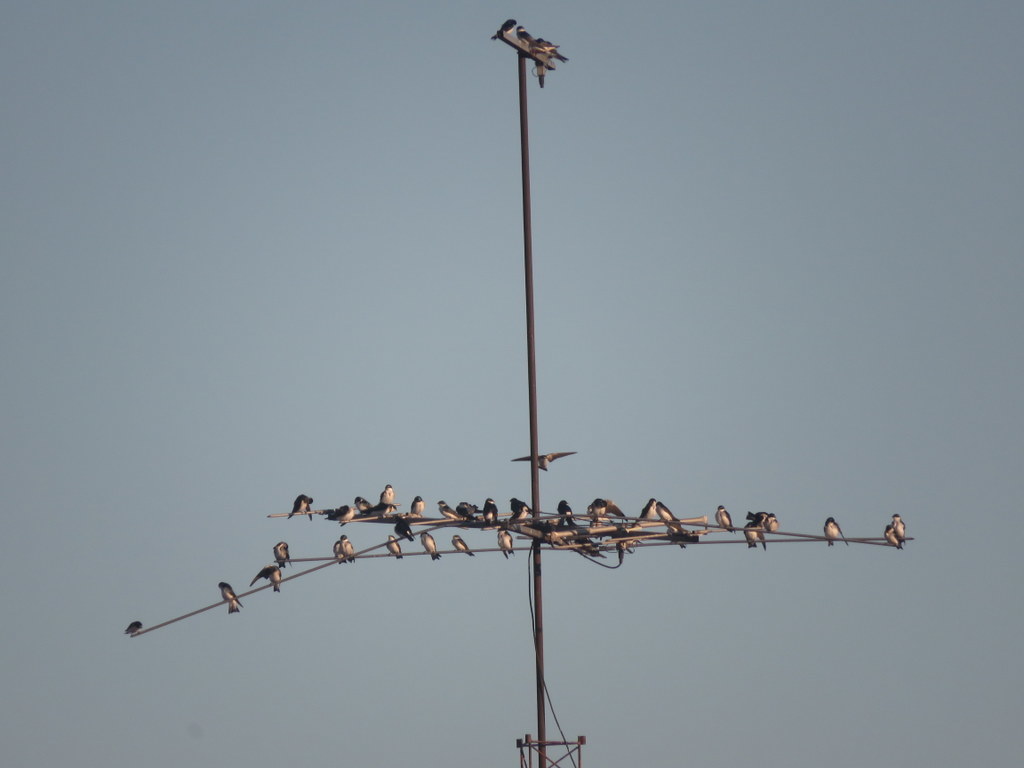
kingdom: Animalia
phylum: Chordata
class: Aves
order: Passeriformes
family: Hirundinidae
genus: Tachycineta
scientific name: Tachycineta leucorrhoa
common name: White-rumped swallow
